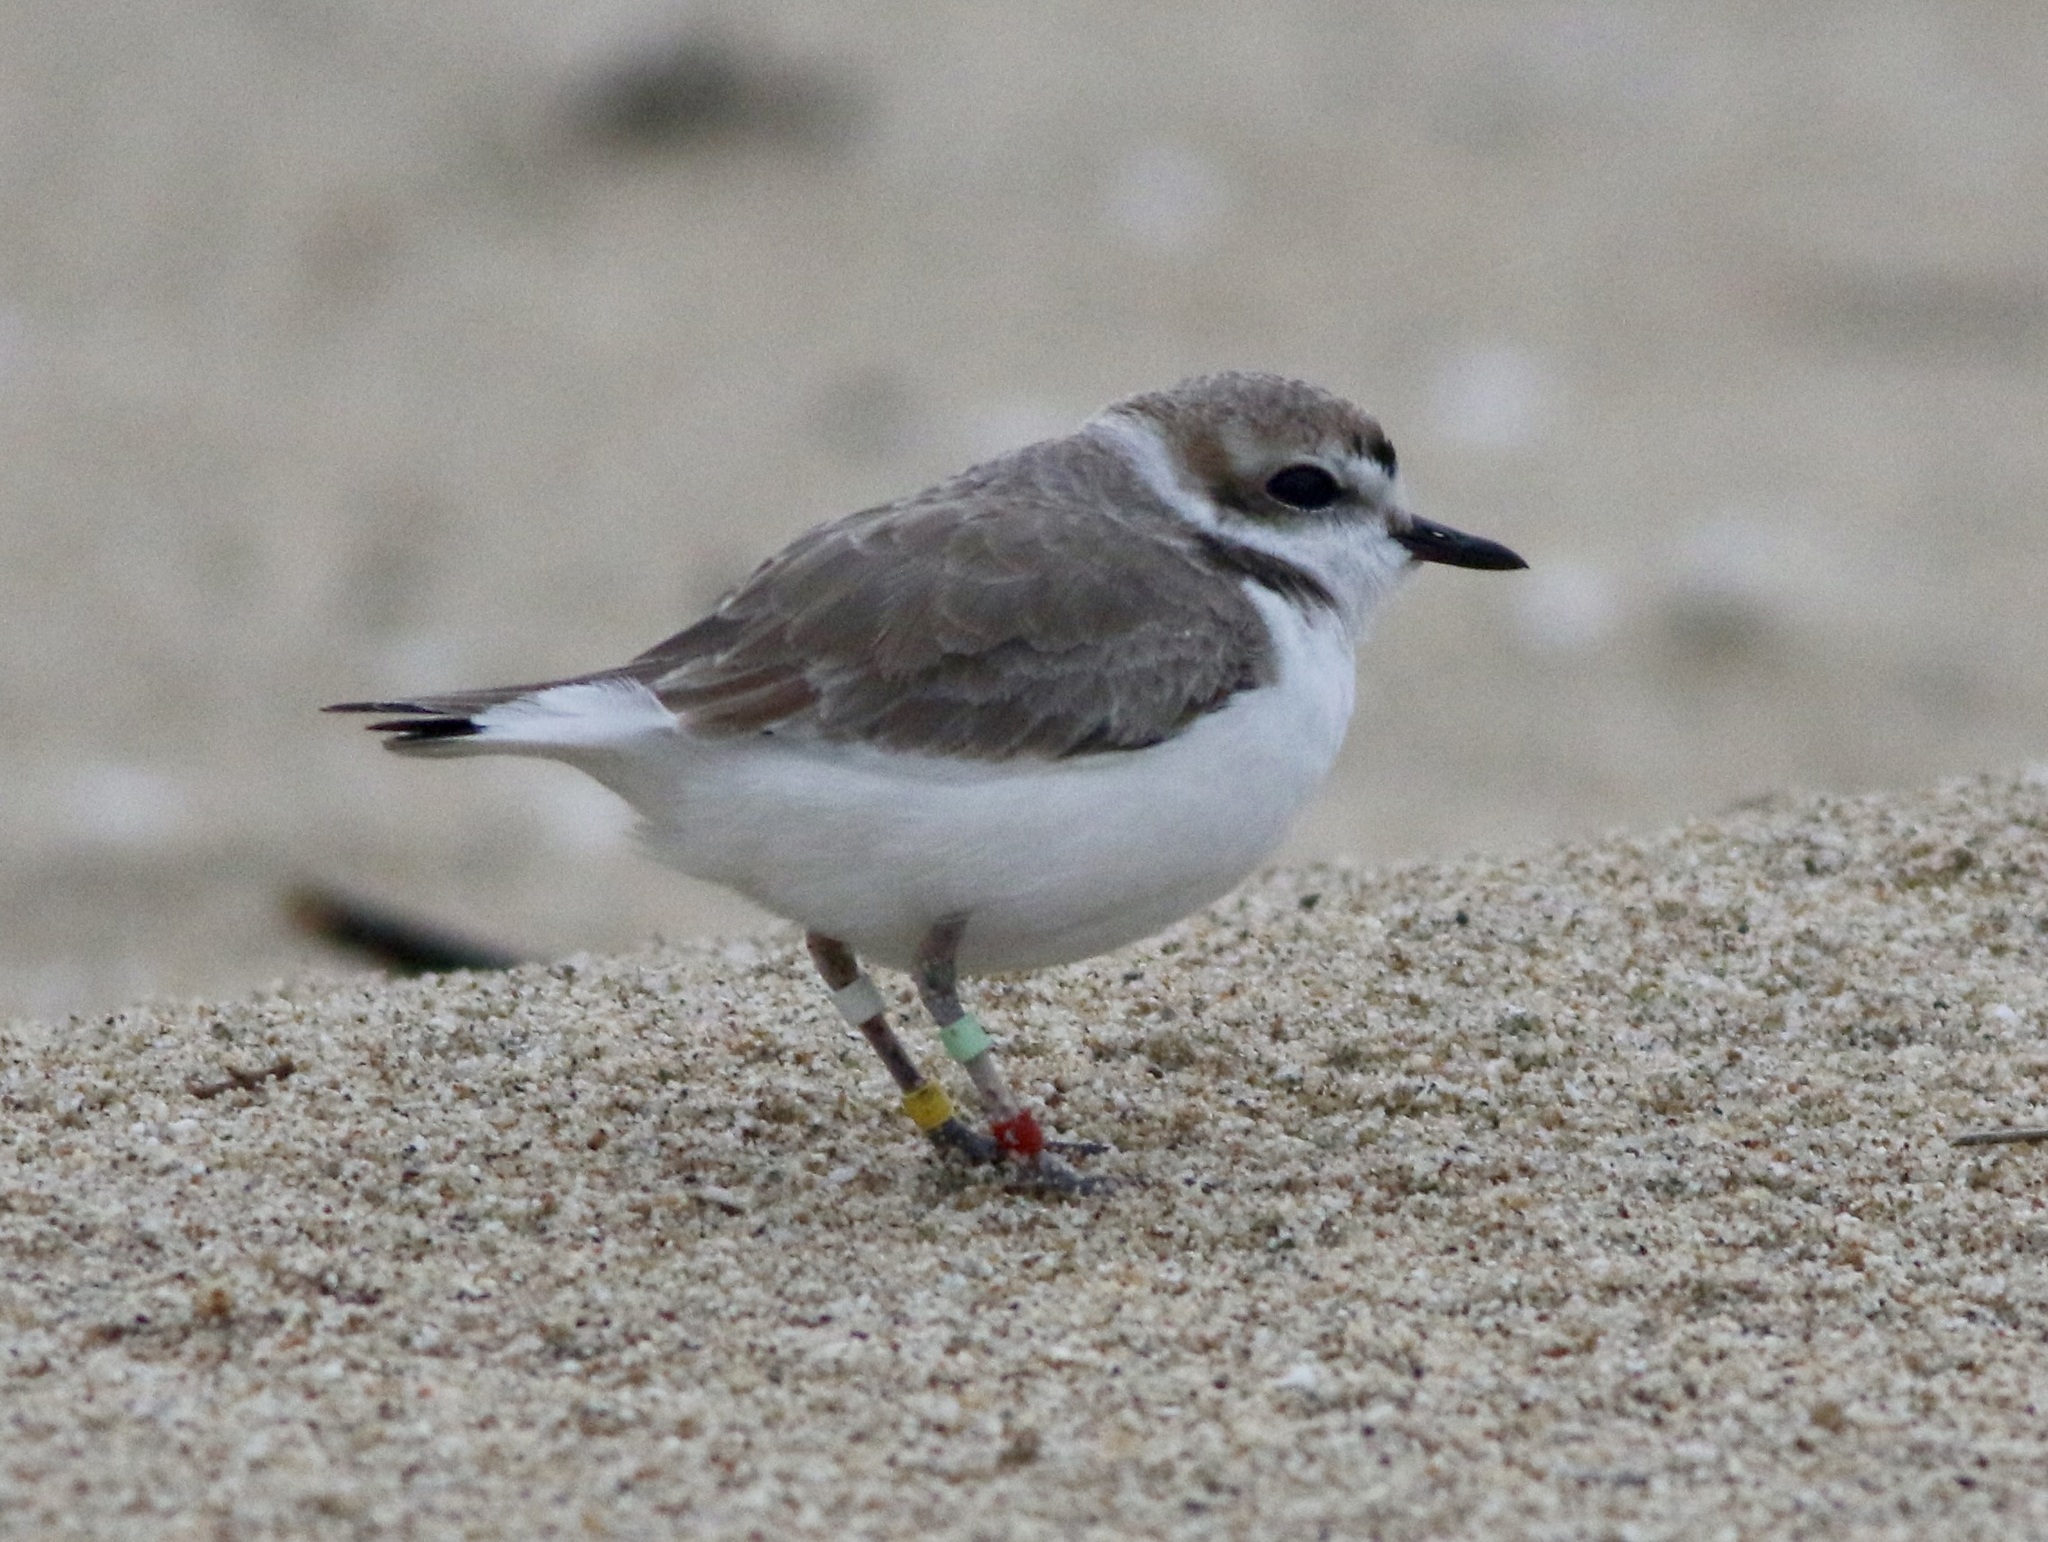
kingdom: Animalia
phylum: Chordata
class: Aves
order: Charadriiformes
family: Charadriidae
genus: Anarhynchus
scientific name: Anarhynchus
